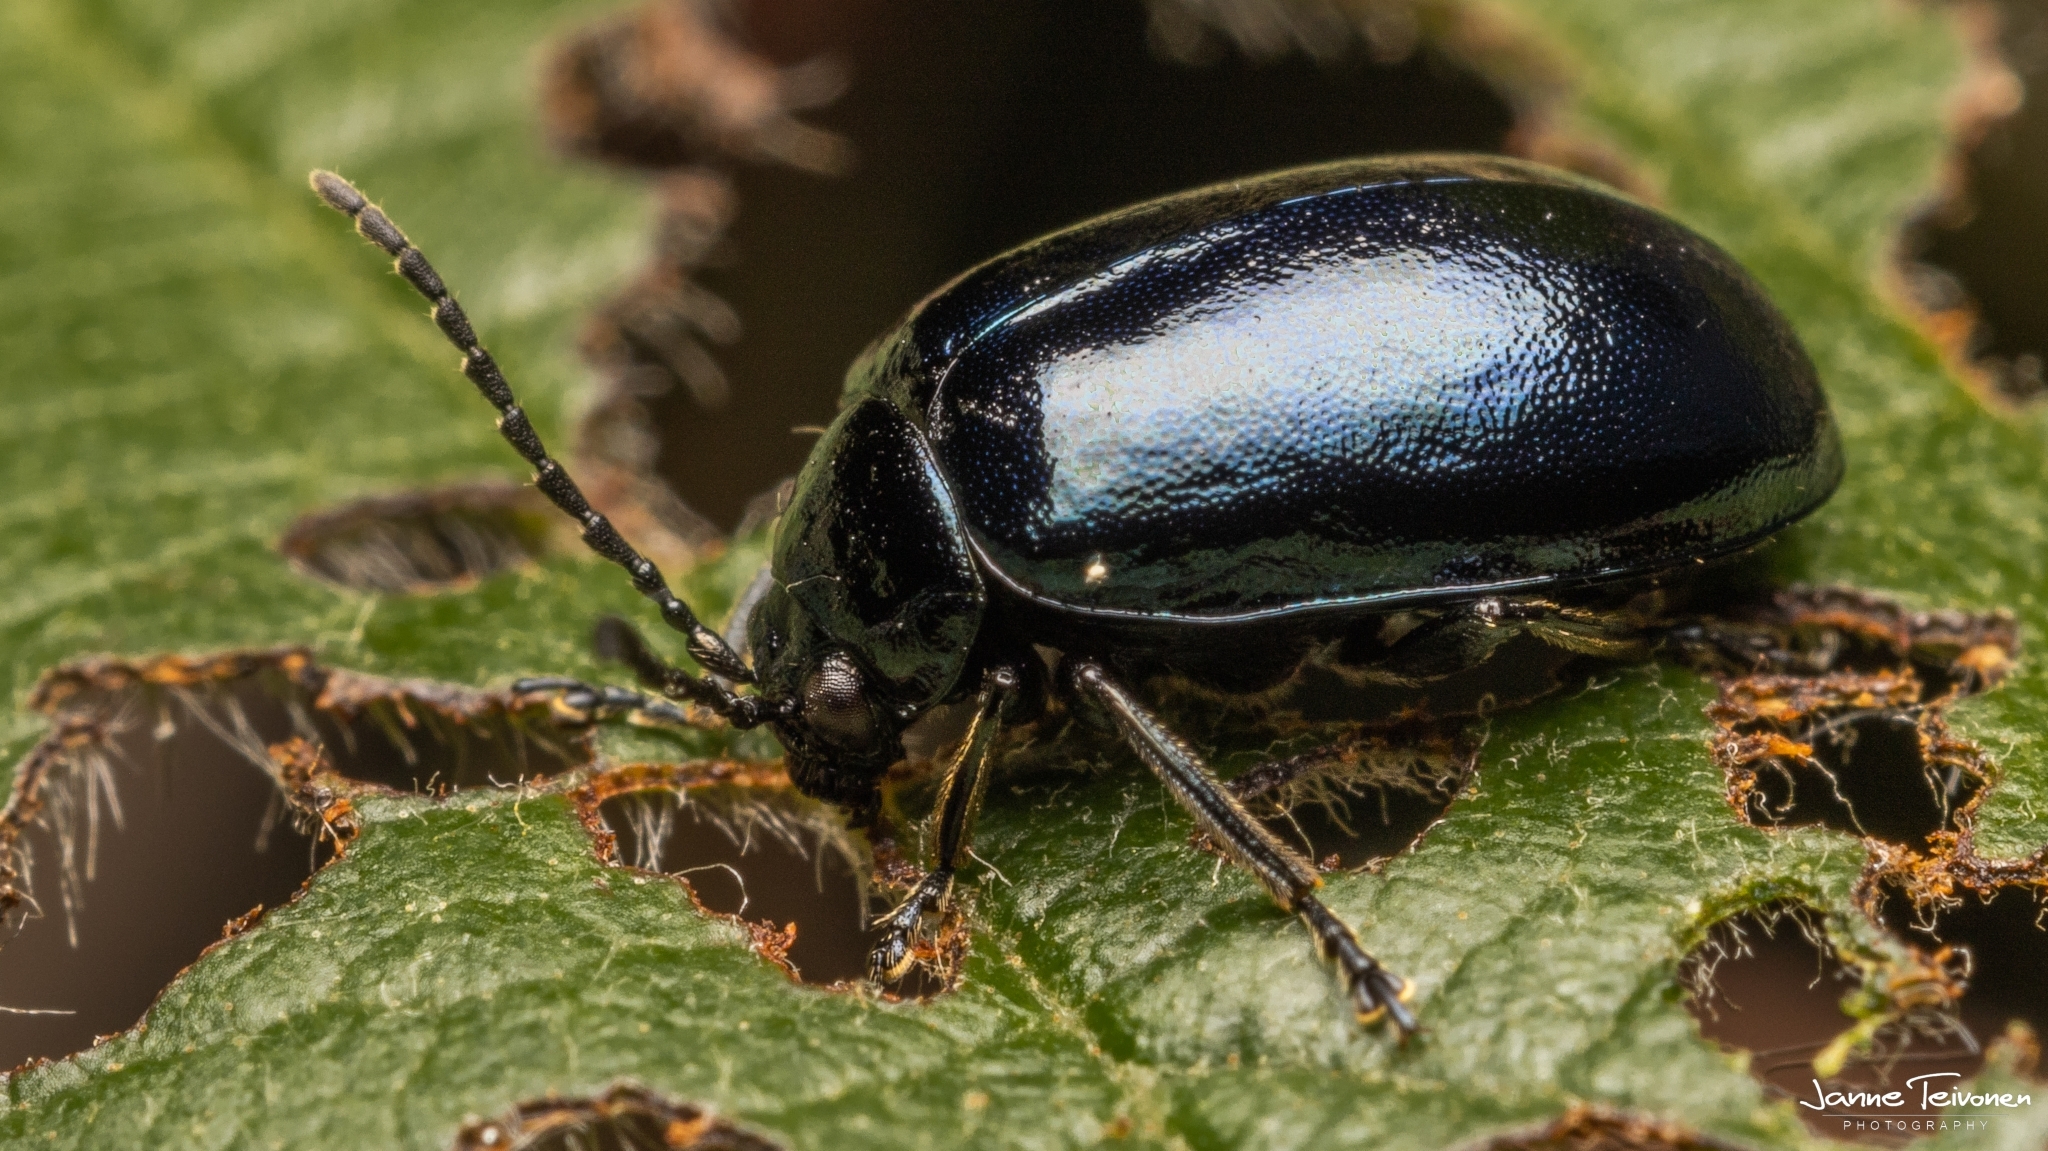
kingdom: Animalia
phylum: Arthropoda
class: Insecta
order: Coleoptera
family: Chrysomelidae
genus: Agelastica
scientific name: Agelastica alni
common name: Alder leaf beetle
